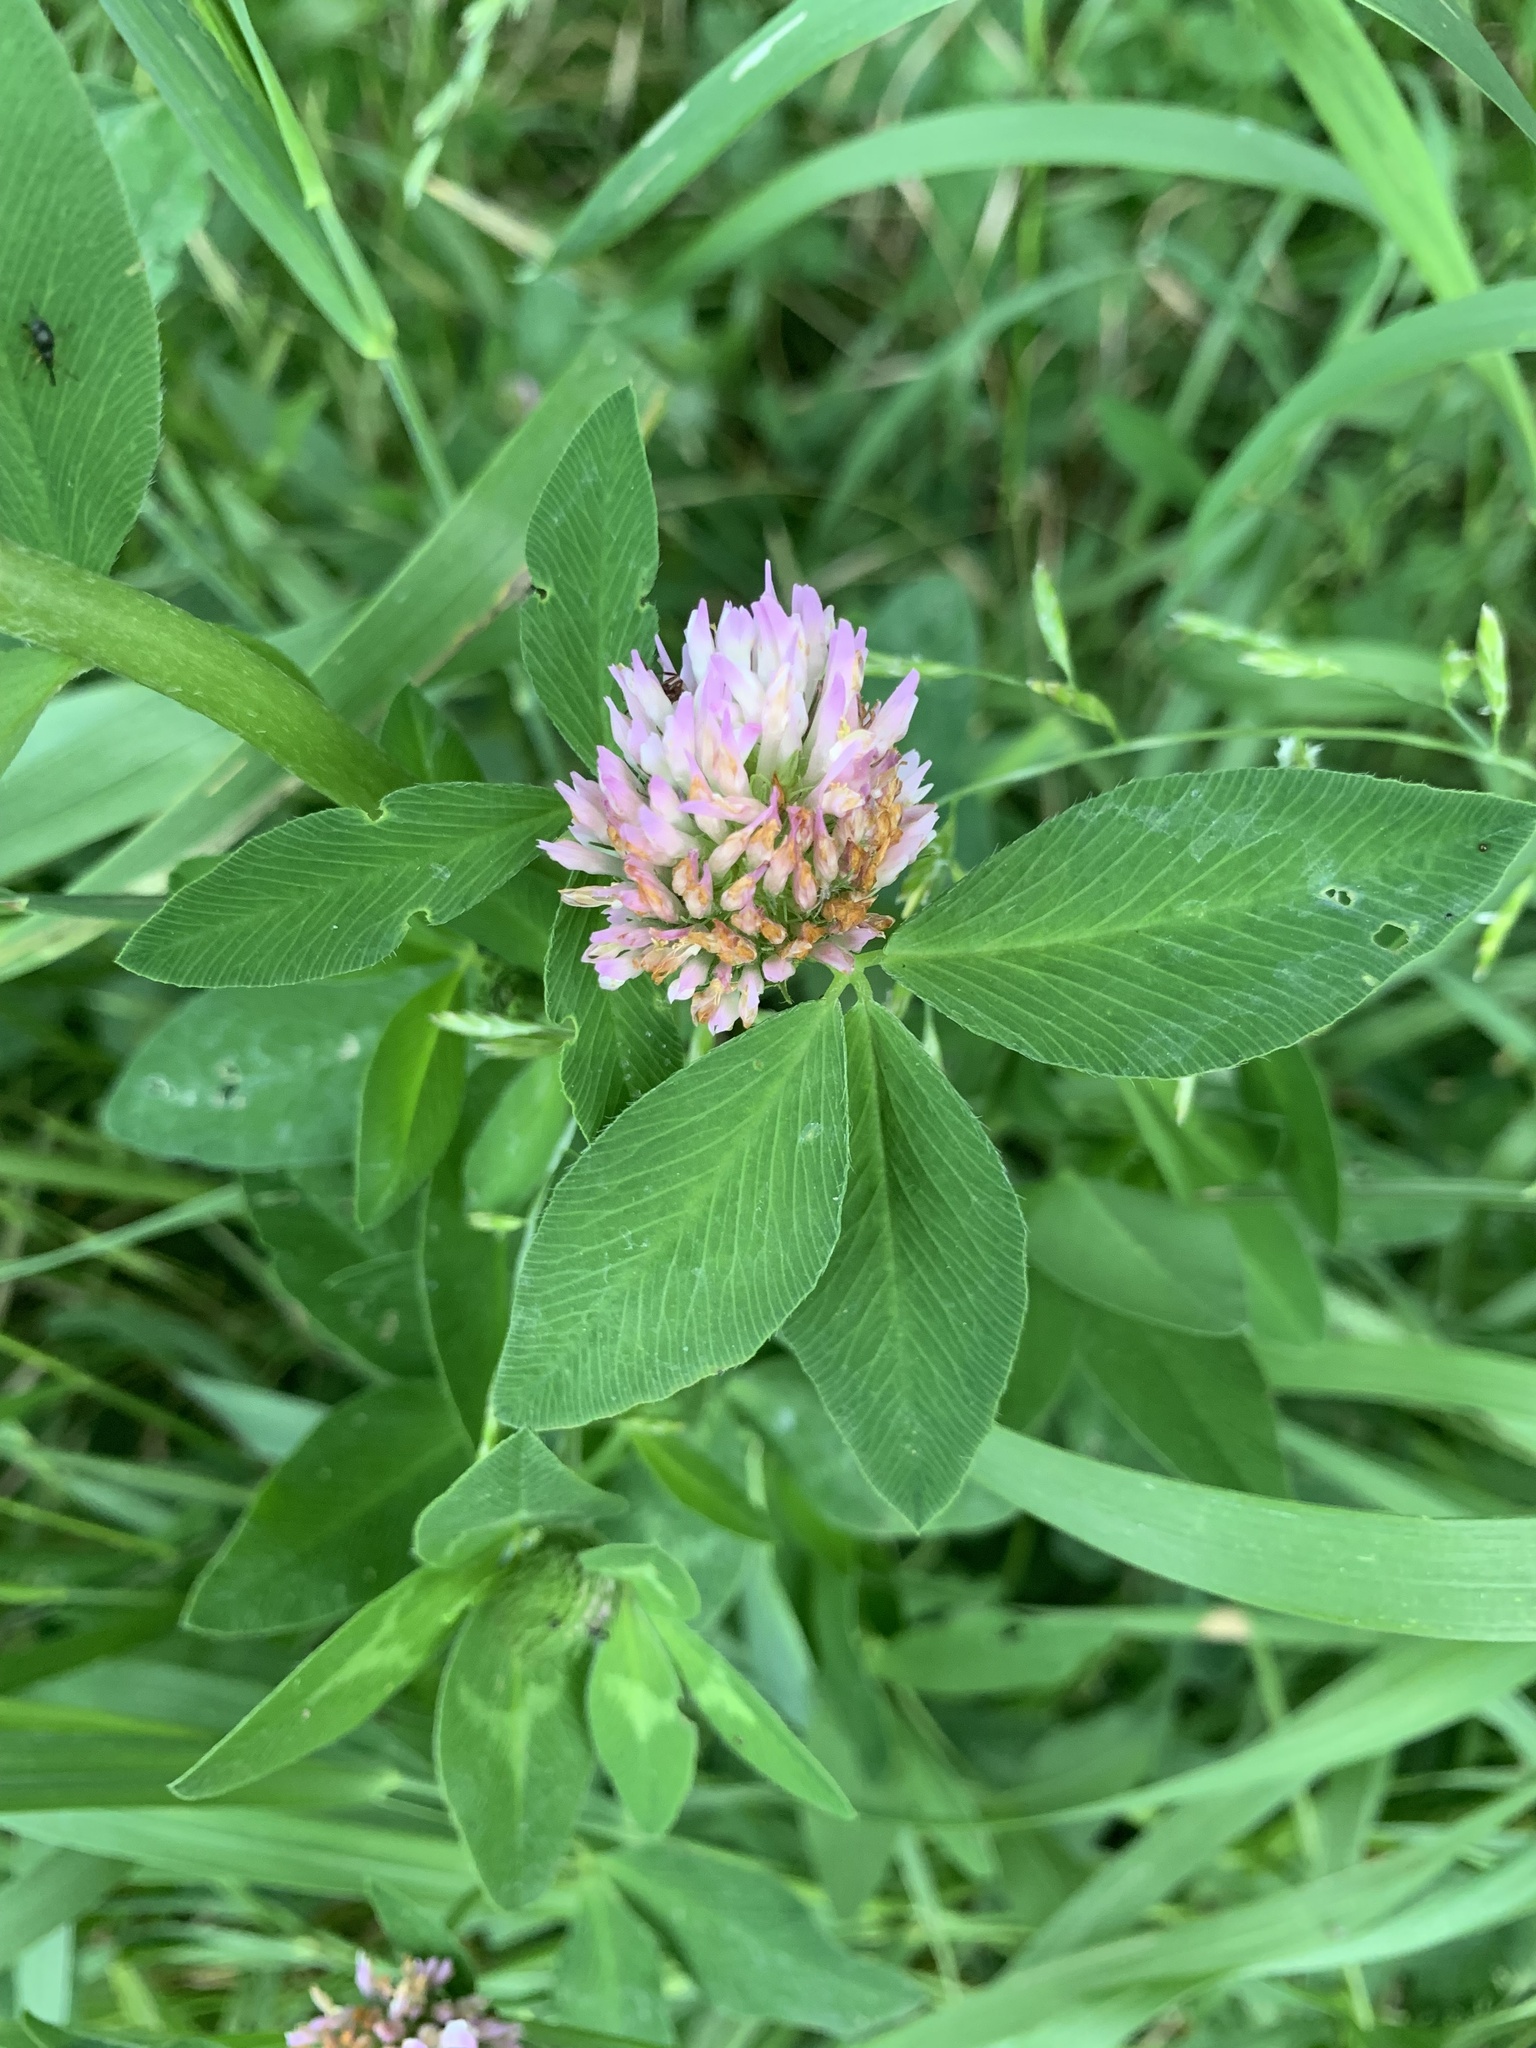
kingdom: Plantae
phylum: Tracheophyta
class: Magnoliopsida
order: Fabales
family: Fabaceae
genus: Trifolium
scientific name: Trifolium pratense
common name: Red clover
